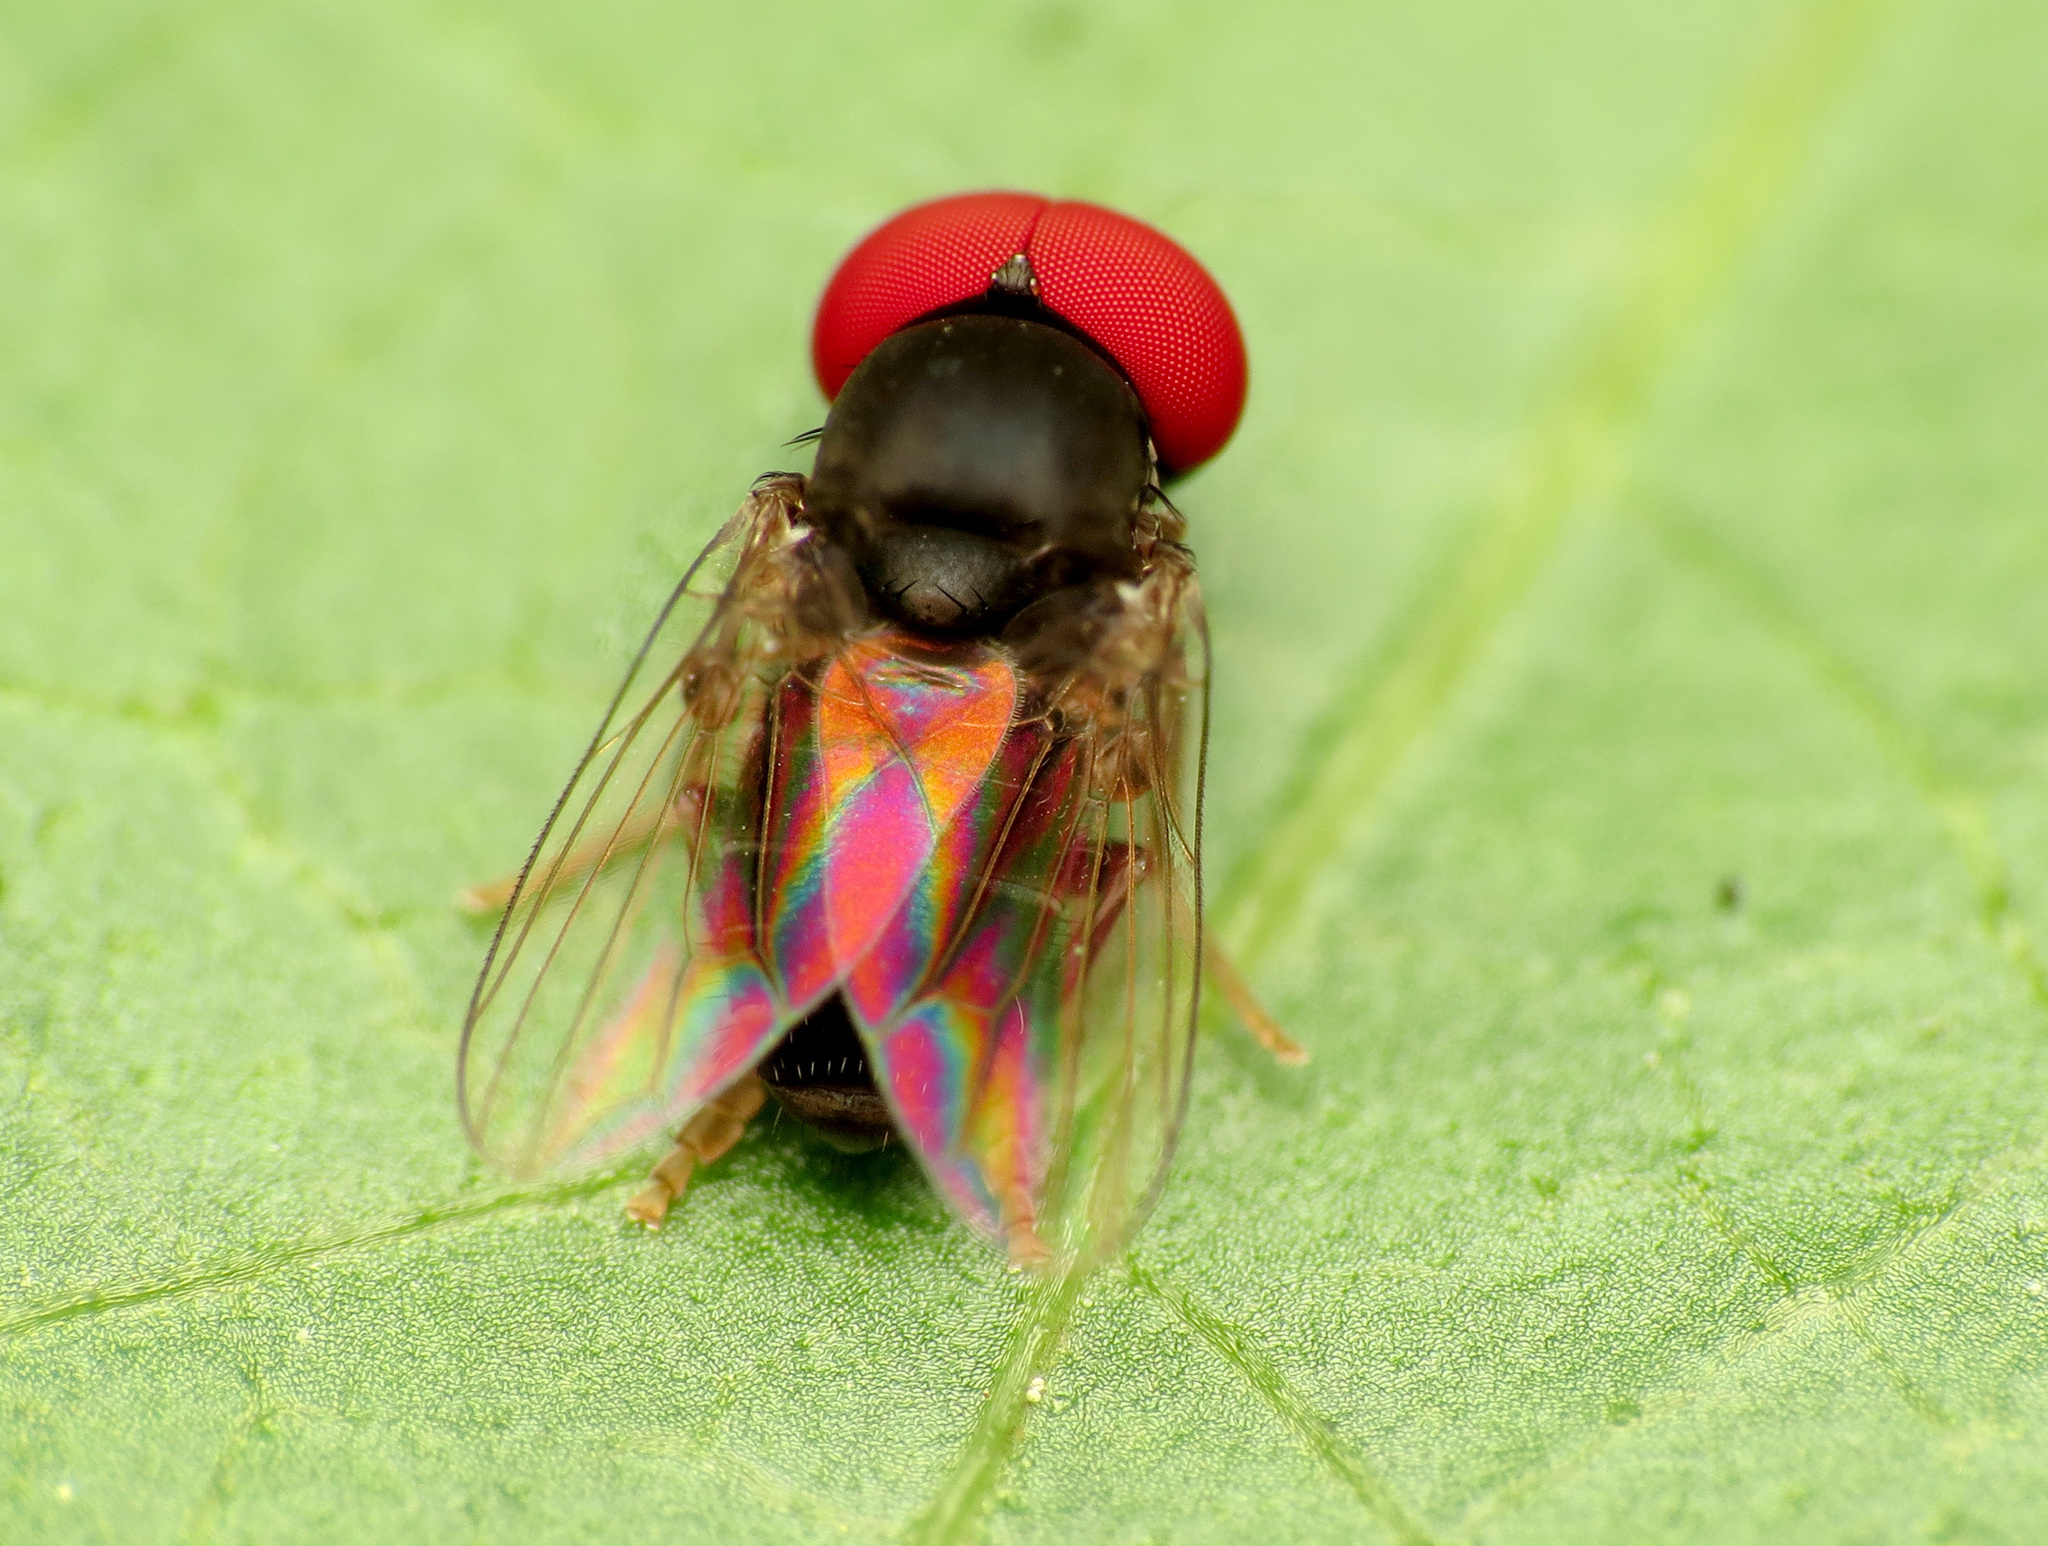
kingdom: Animalia
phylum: Arthropoda
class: Insecta
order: Diptera
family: Platypezidae
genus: Lindneromyia
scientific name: Lindneromyia flavicornis
